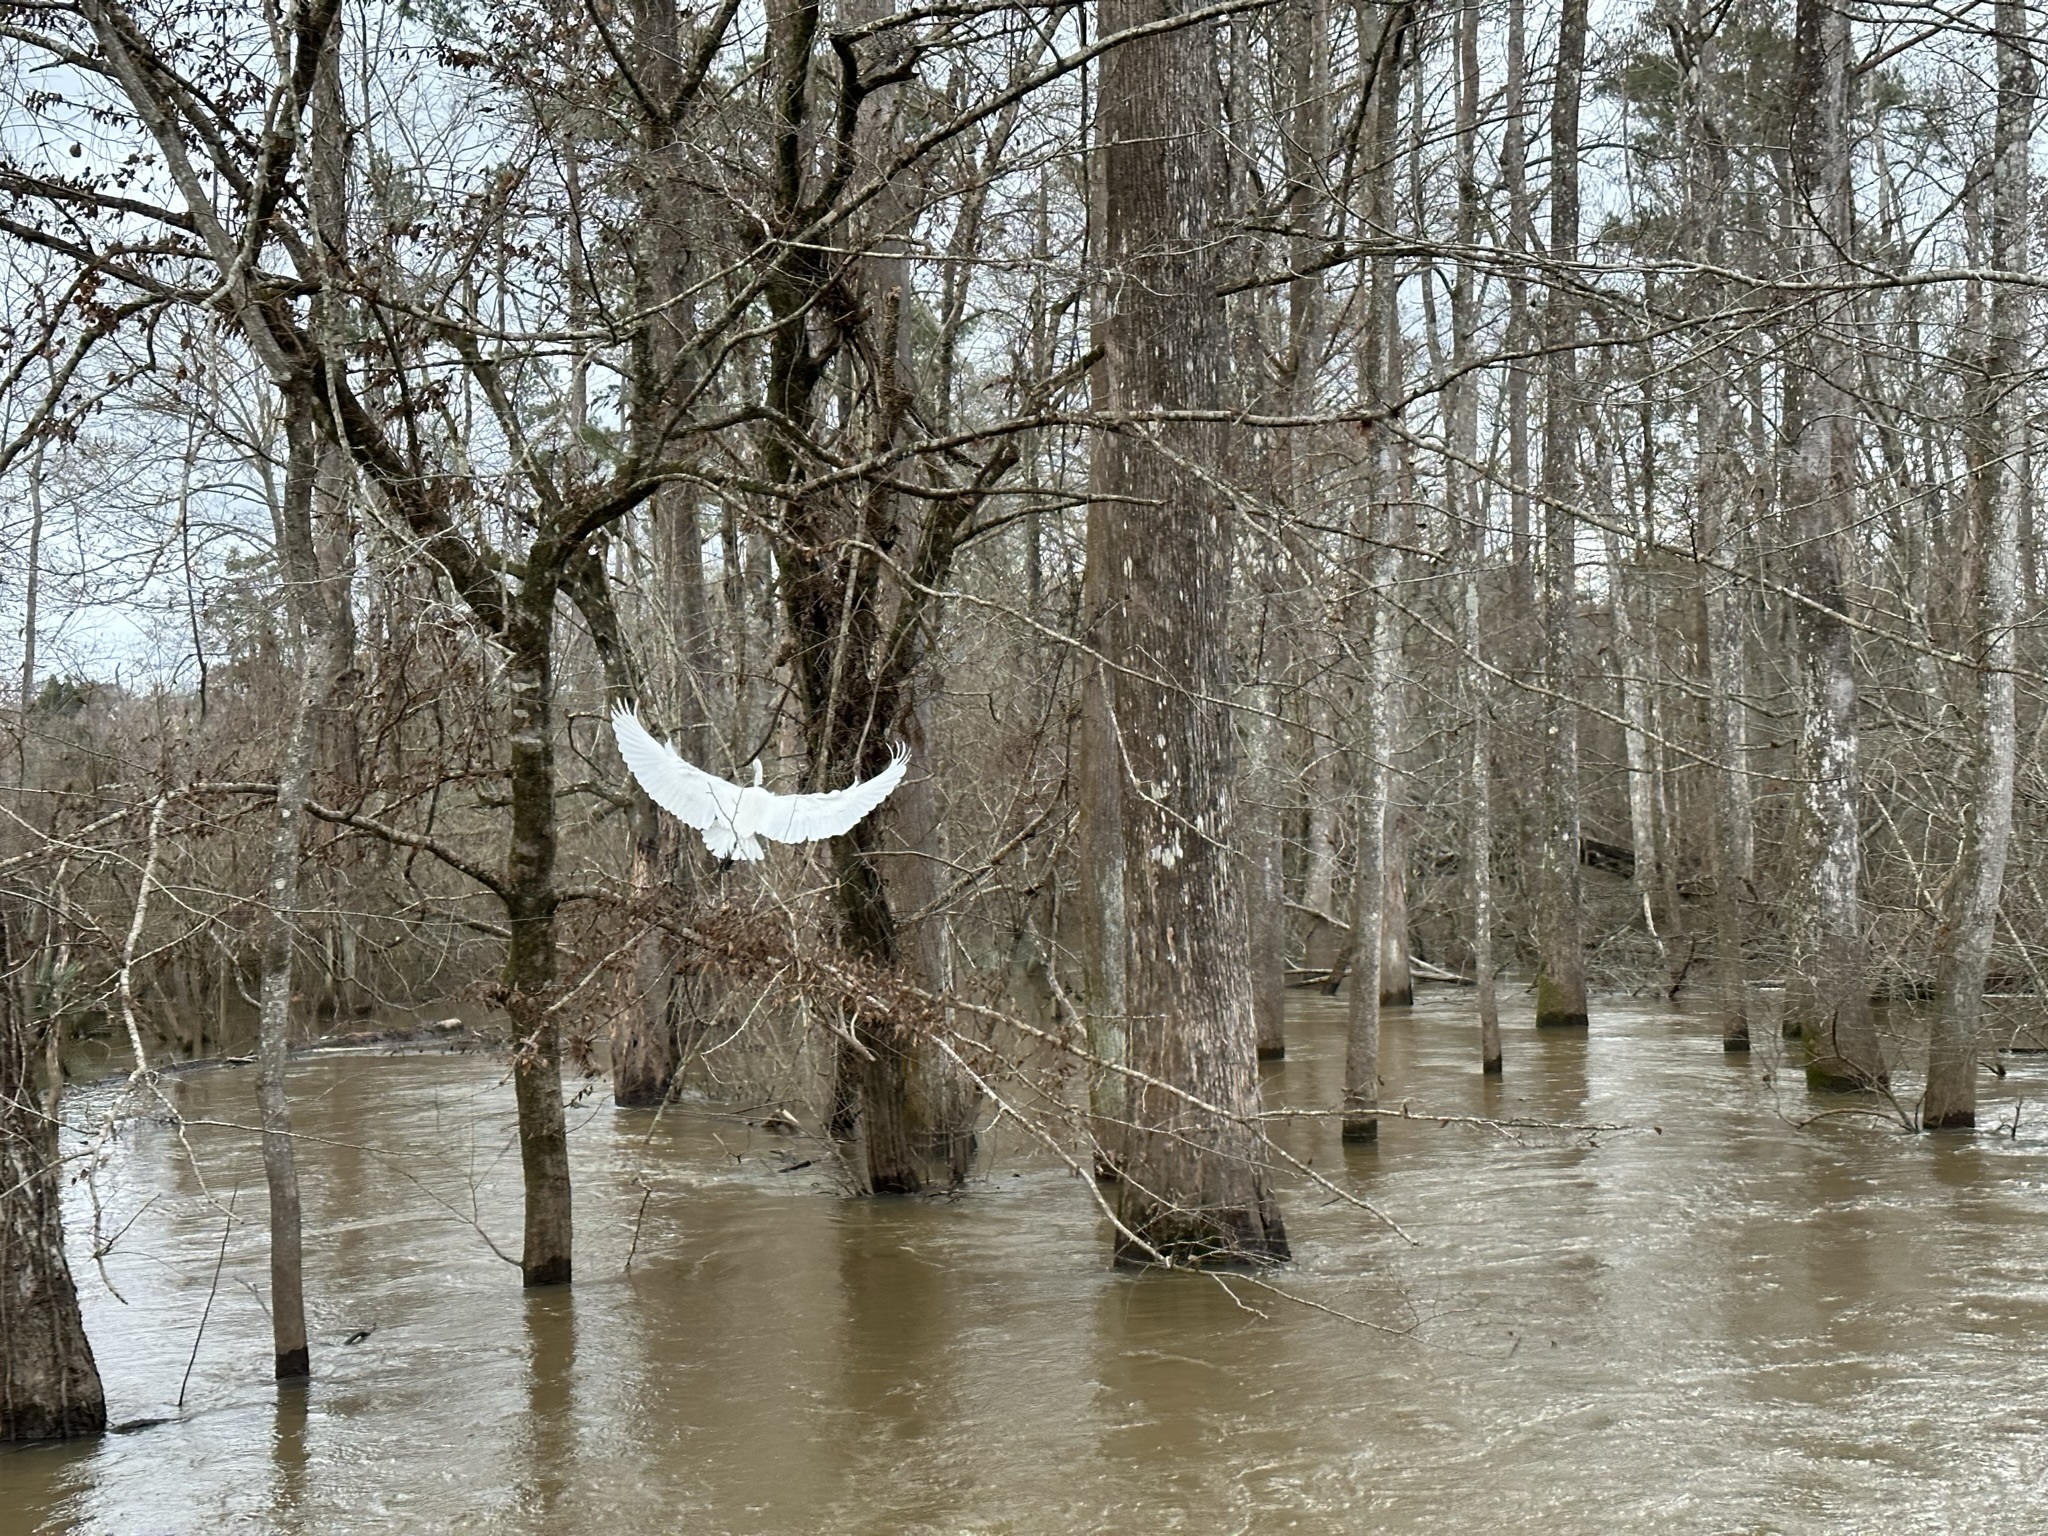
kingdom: Animalia
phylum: Chordata
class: Aves
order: Pelecaniformes
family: Ardeidae
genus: Ardea
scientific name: Ardea alba
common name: Great egret
